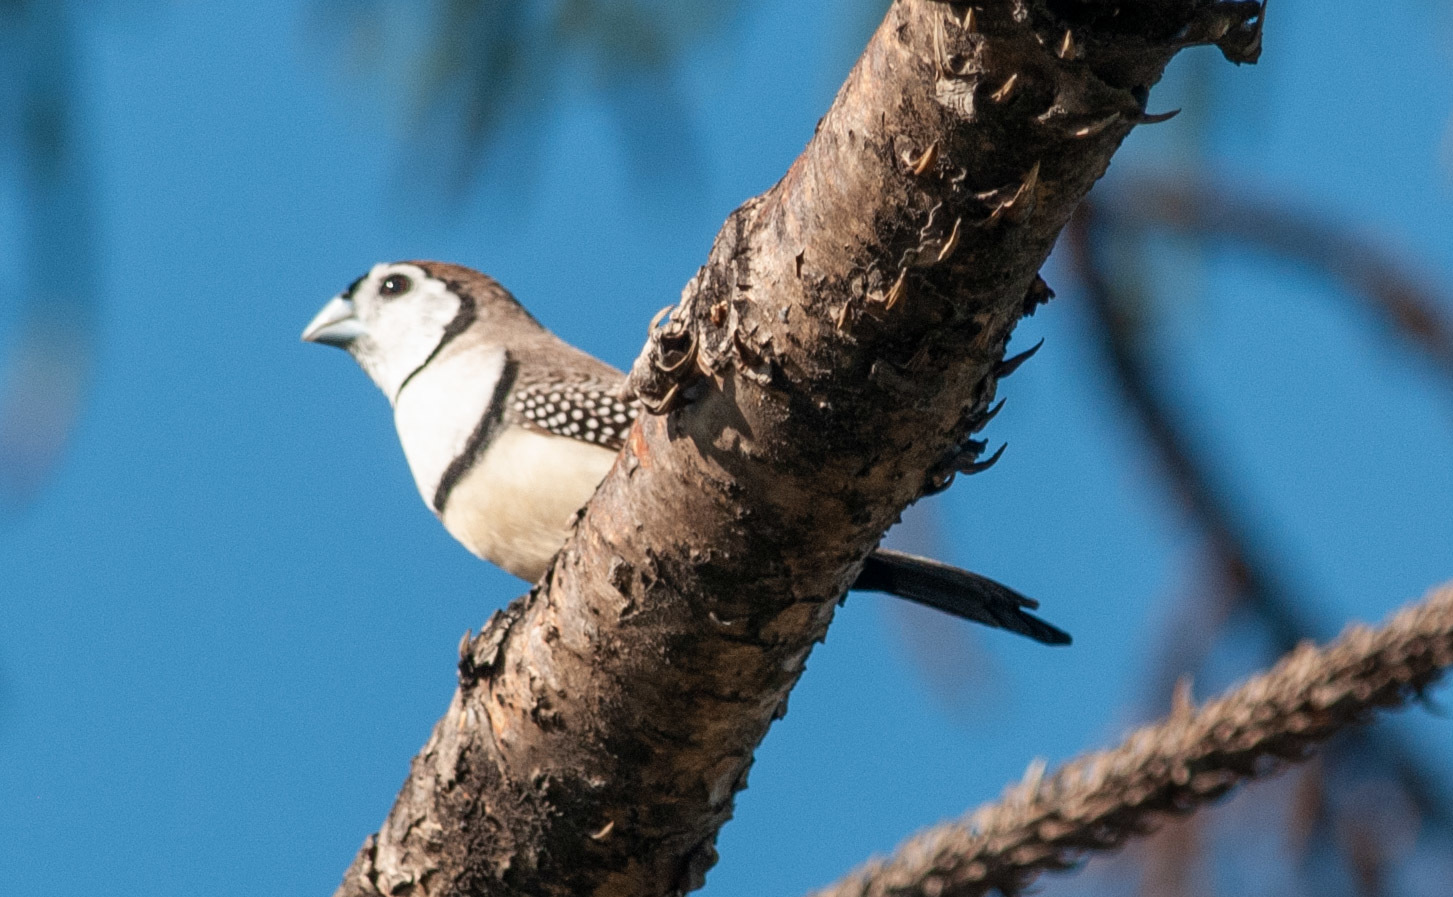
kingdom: Animalia
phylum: Chordata
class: Aves
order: Passeriformes
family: Estrildidae
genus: Taeniopygia
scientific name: Taeniopygia bichenovii
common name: Double-barred finch
